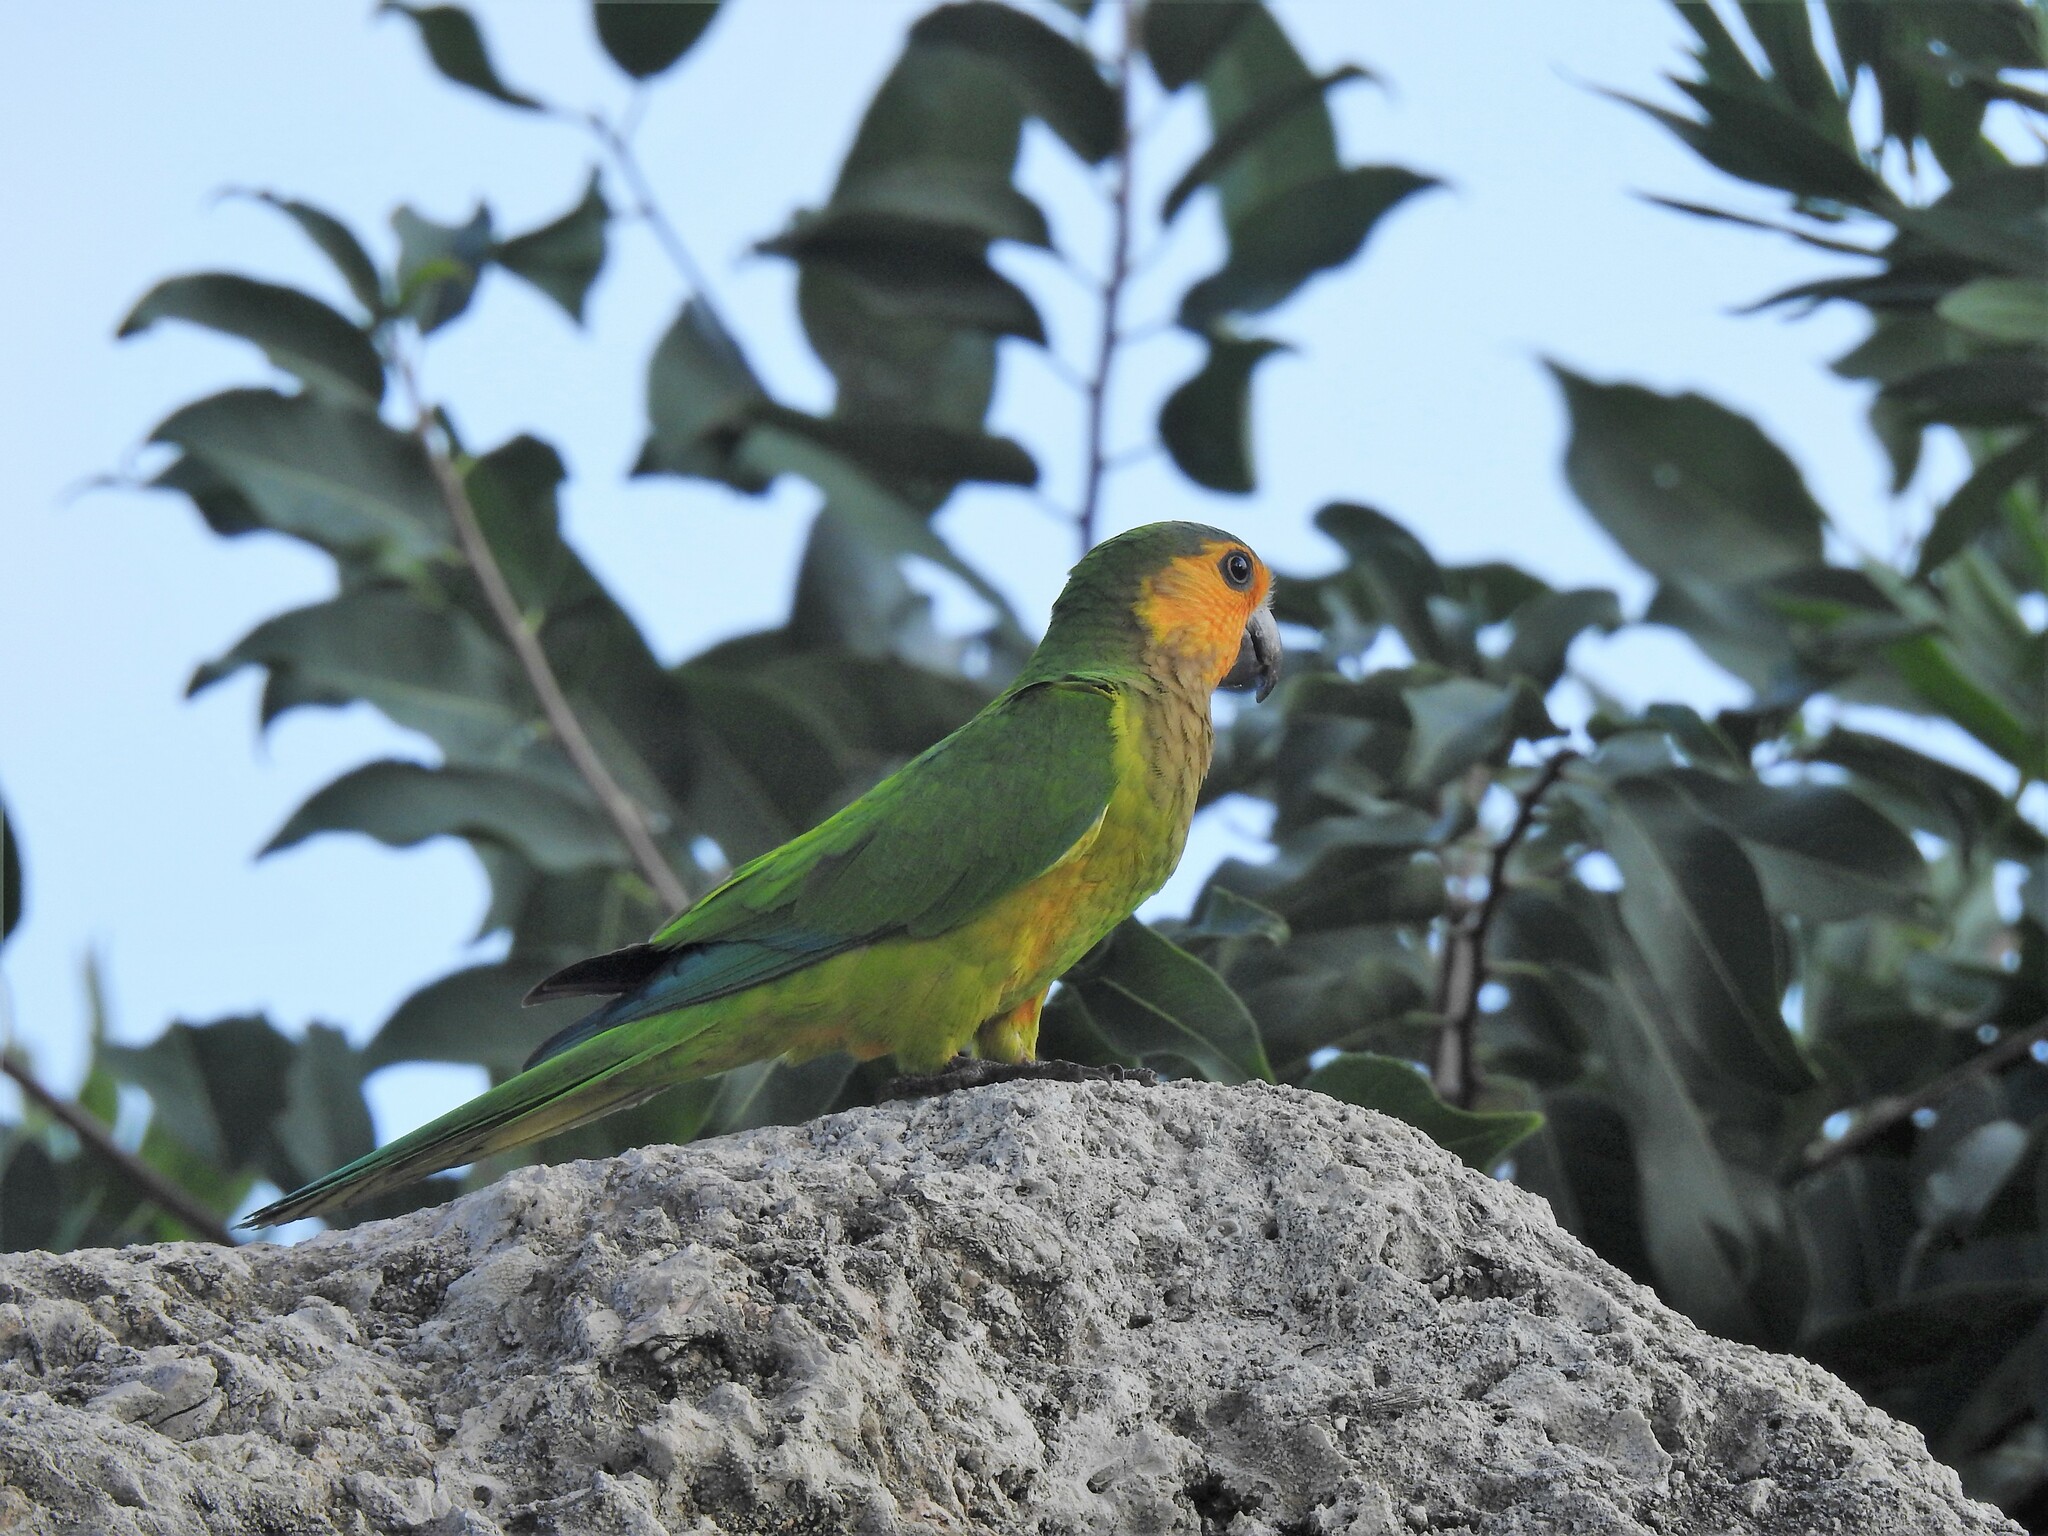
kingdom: Animalia
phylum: Chordata
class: Aves
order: Psittaciformes
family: Psittacidae
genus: Aratinga
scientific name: Aratinga pertinax
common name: Brown-throated parakeet
